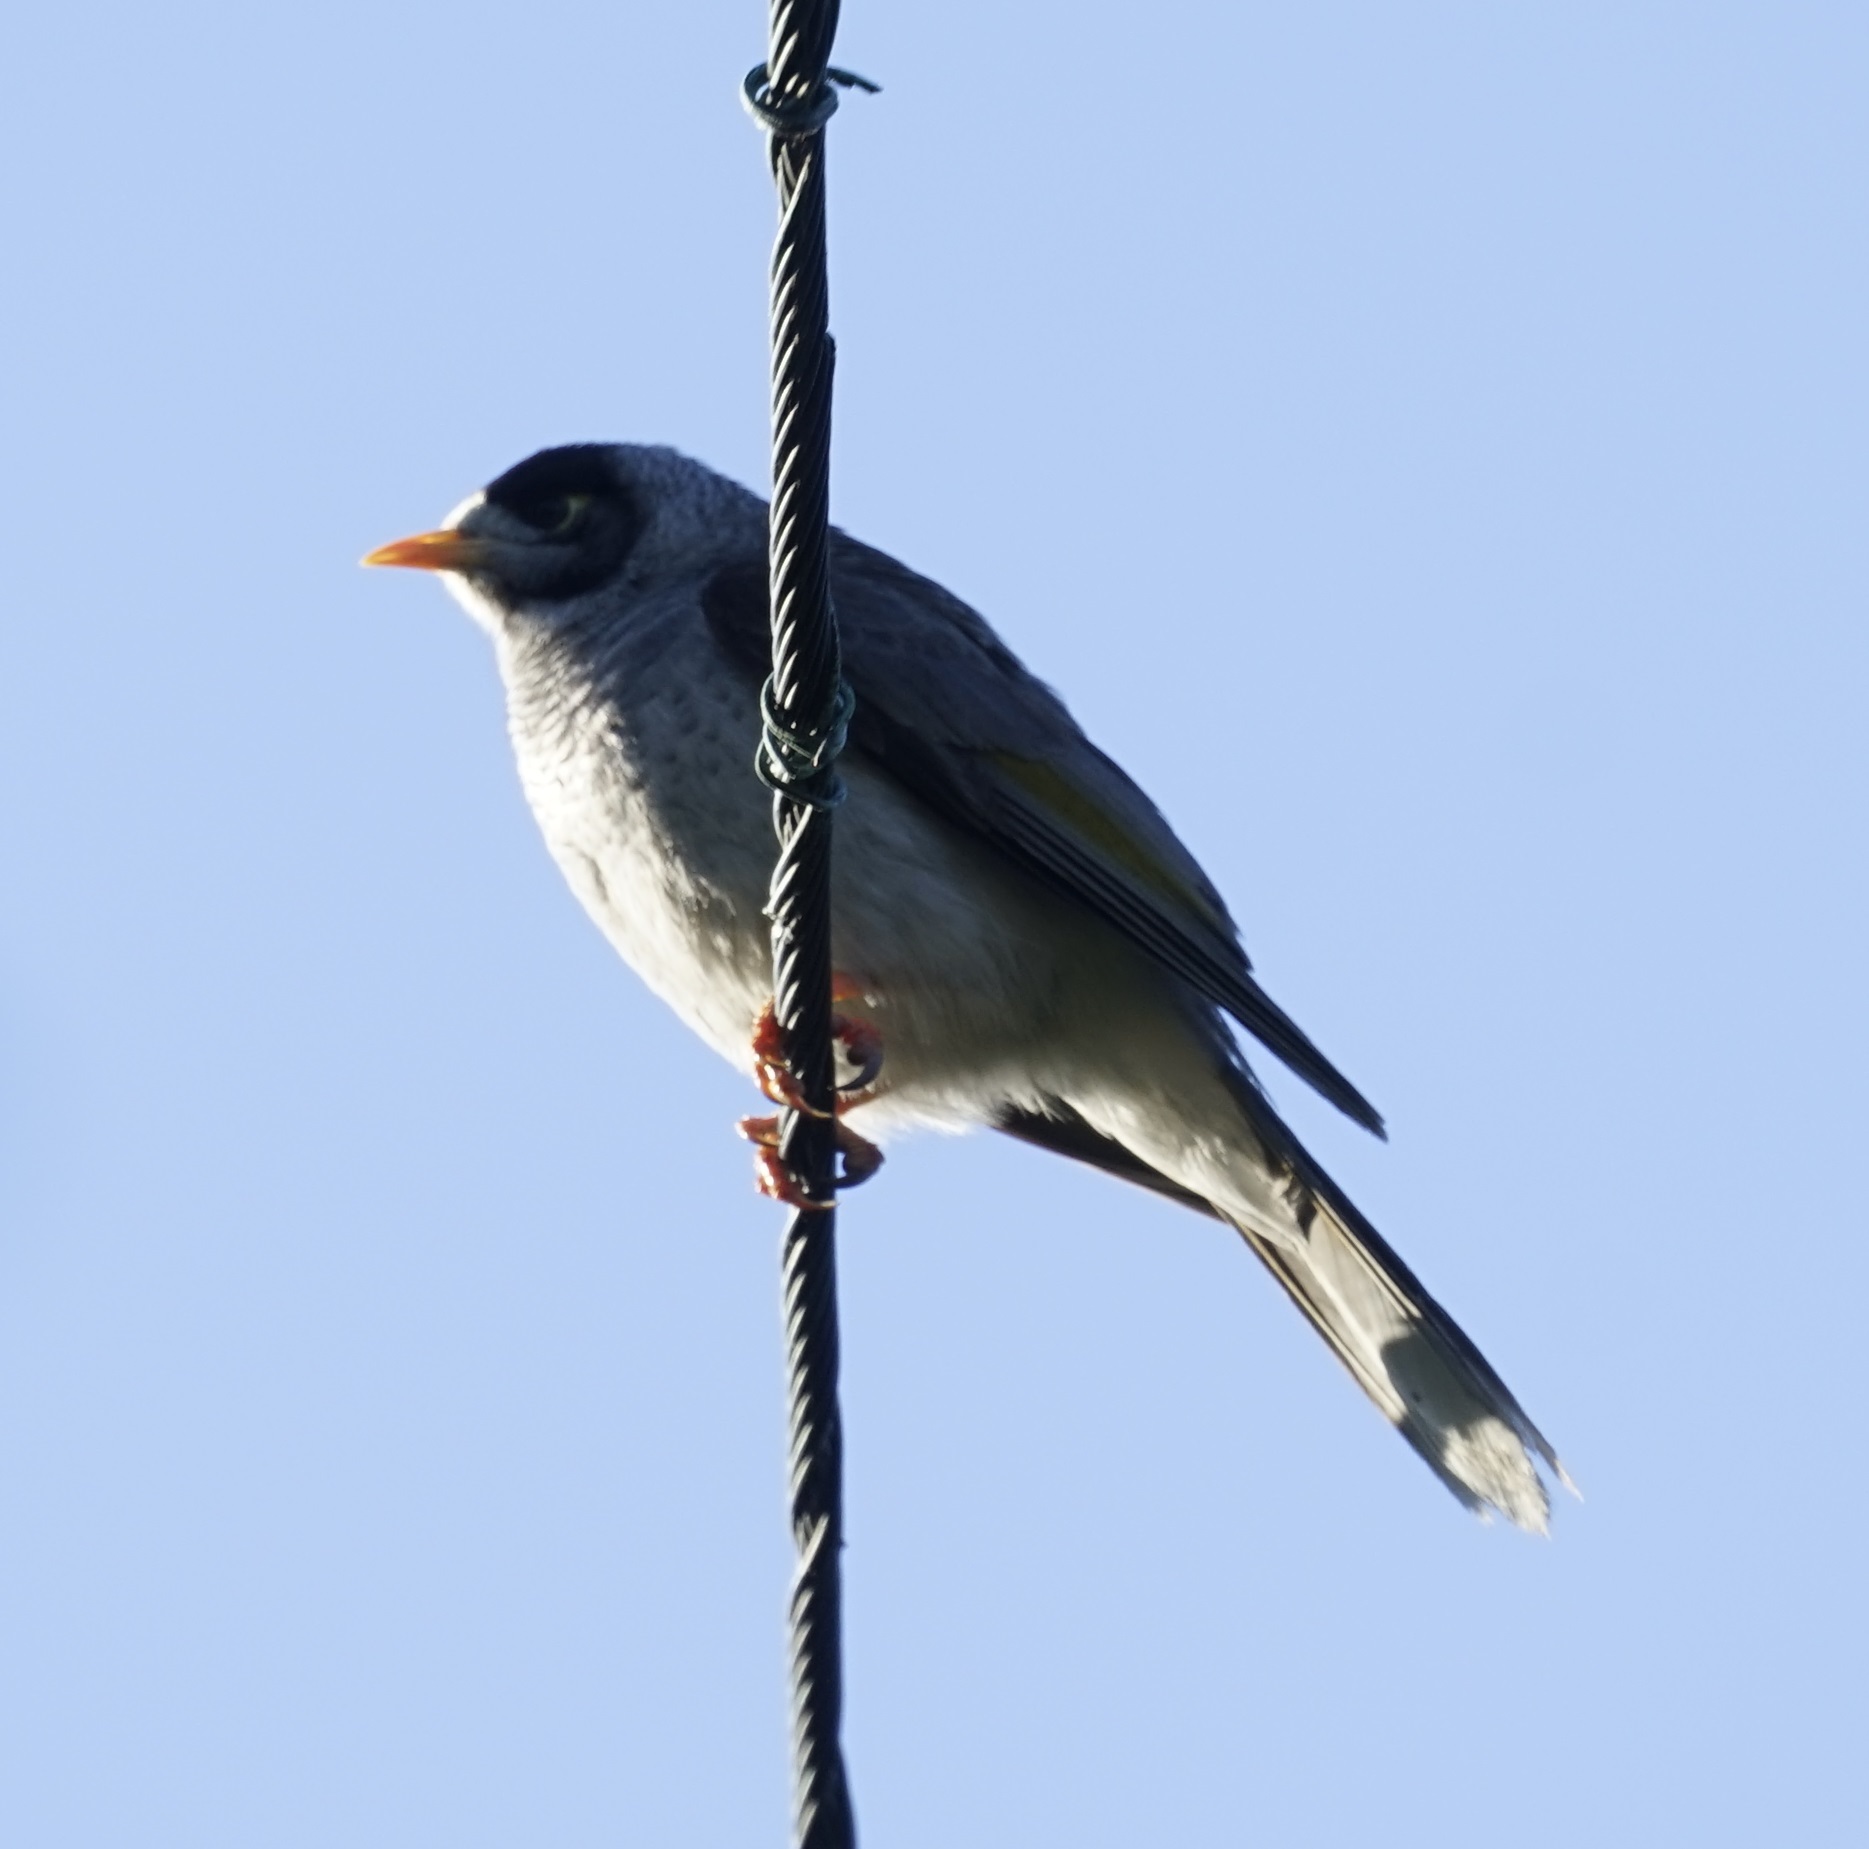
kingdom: Animalia
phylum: Chordata
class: Aves
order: Passeriformes
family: Meliphagidae
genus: Manorina
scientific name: Manorina melanocephala
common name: Noisy miner
